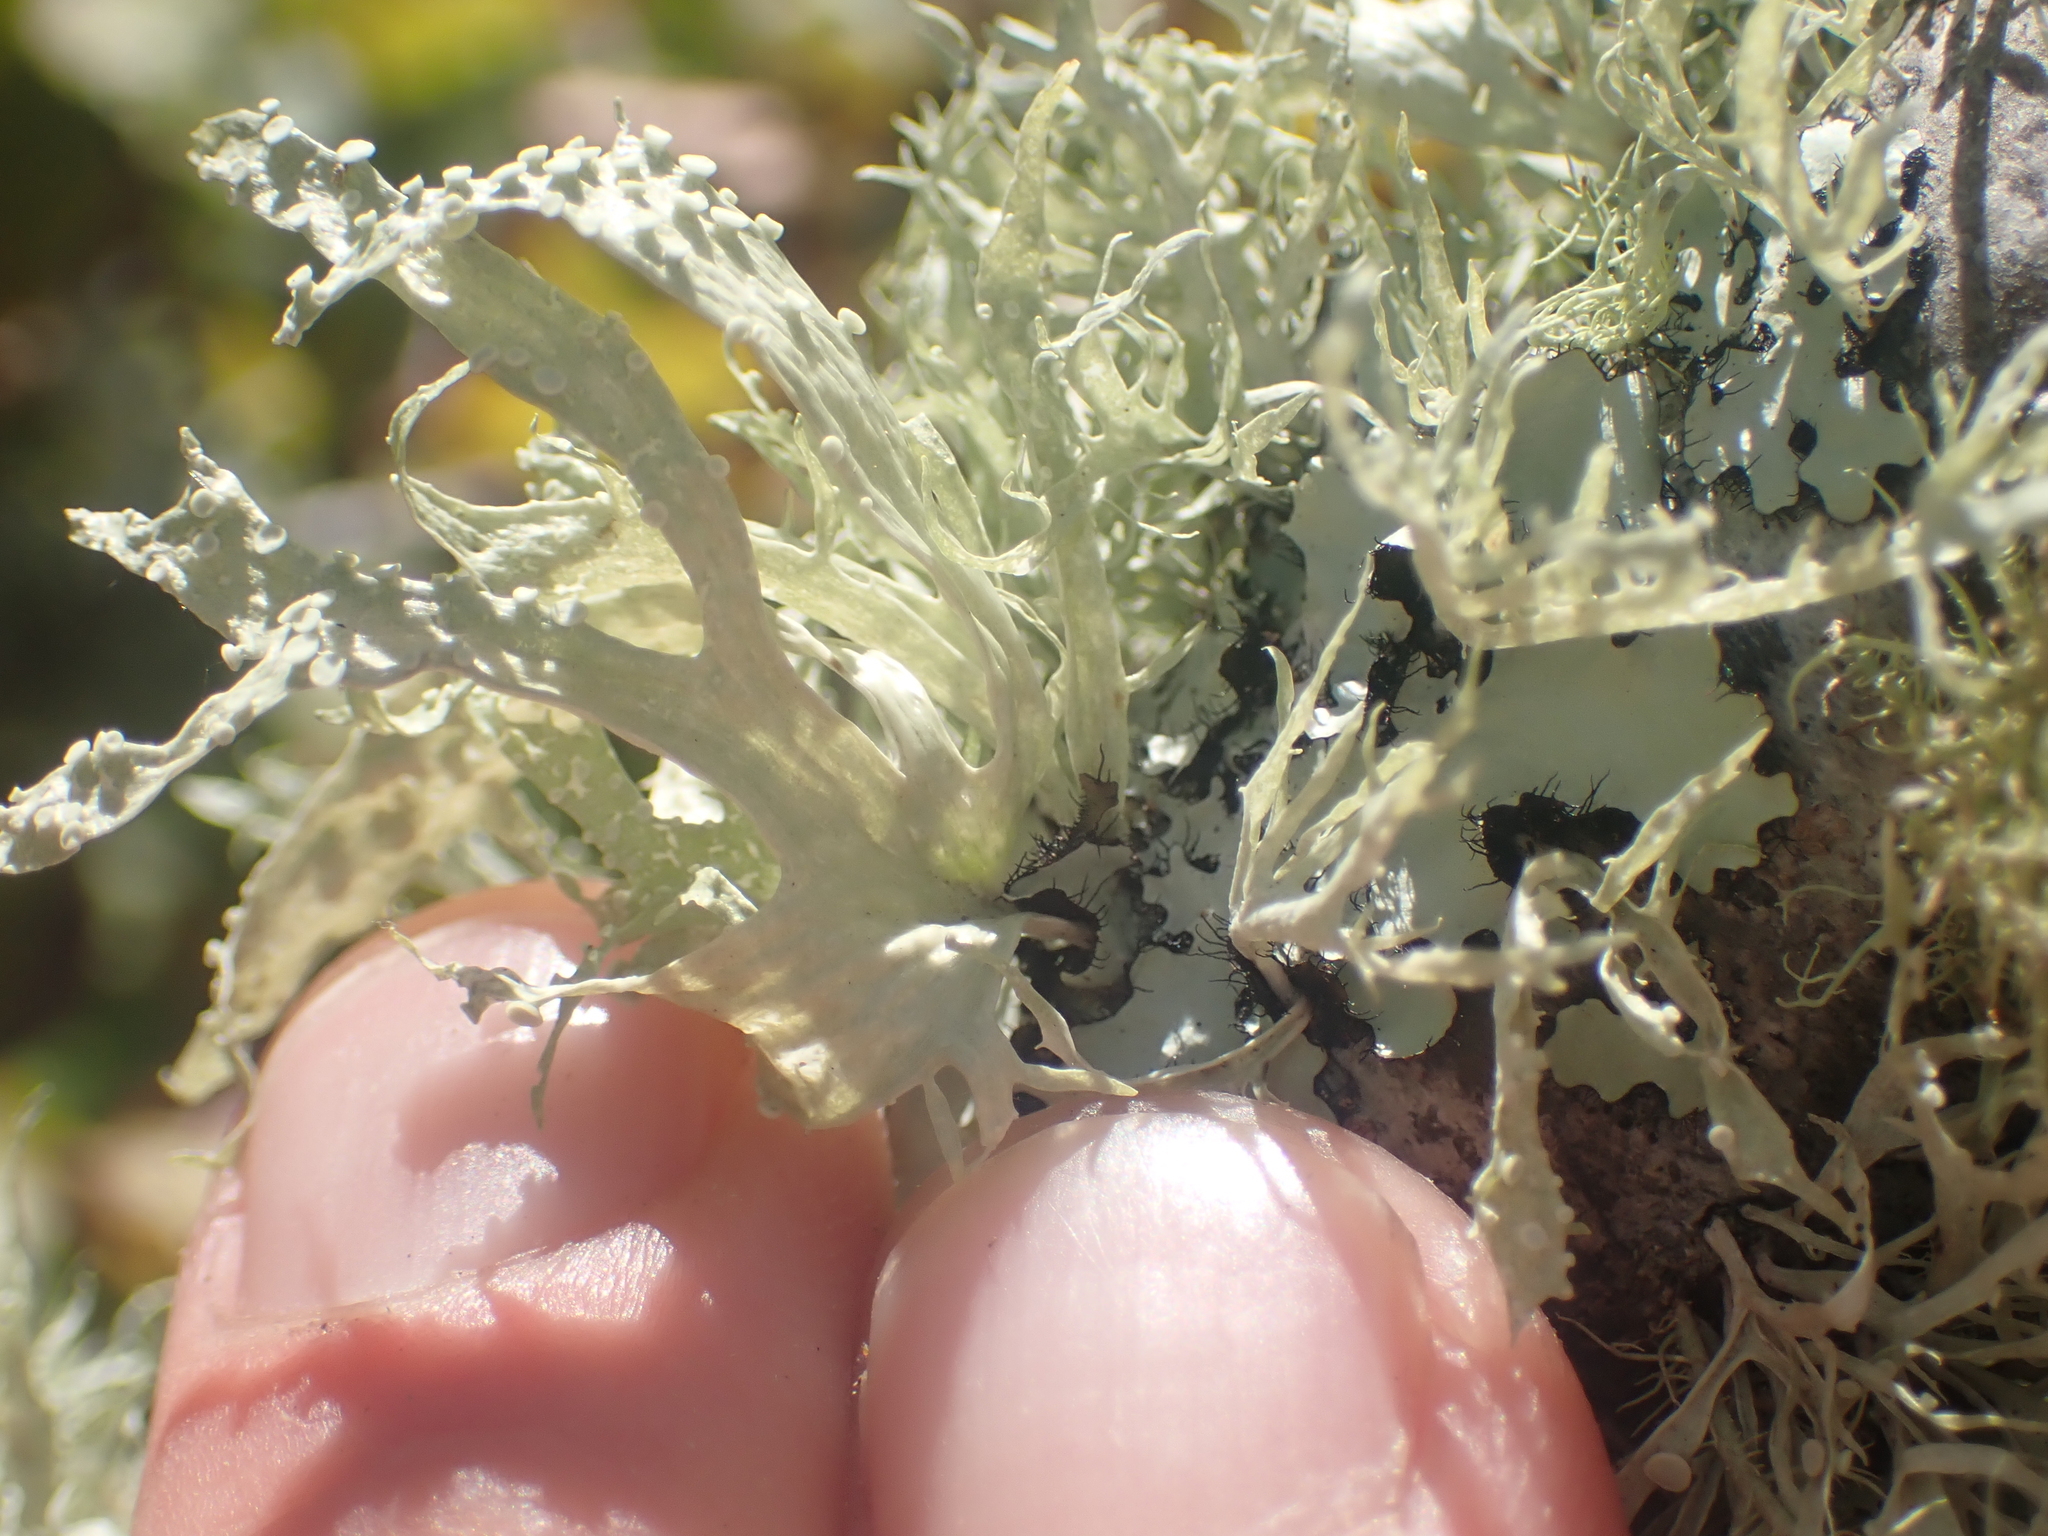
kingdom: Fungi
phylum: Ascomycota
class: Lecanoromycetes
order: Lecanorales
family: Ramalinaceae
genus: Ramalina
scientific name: Ramalina celastri
